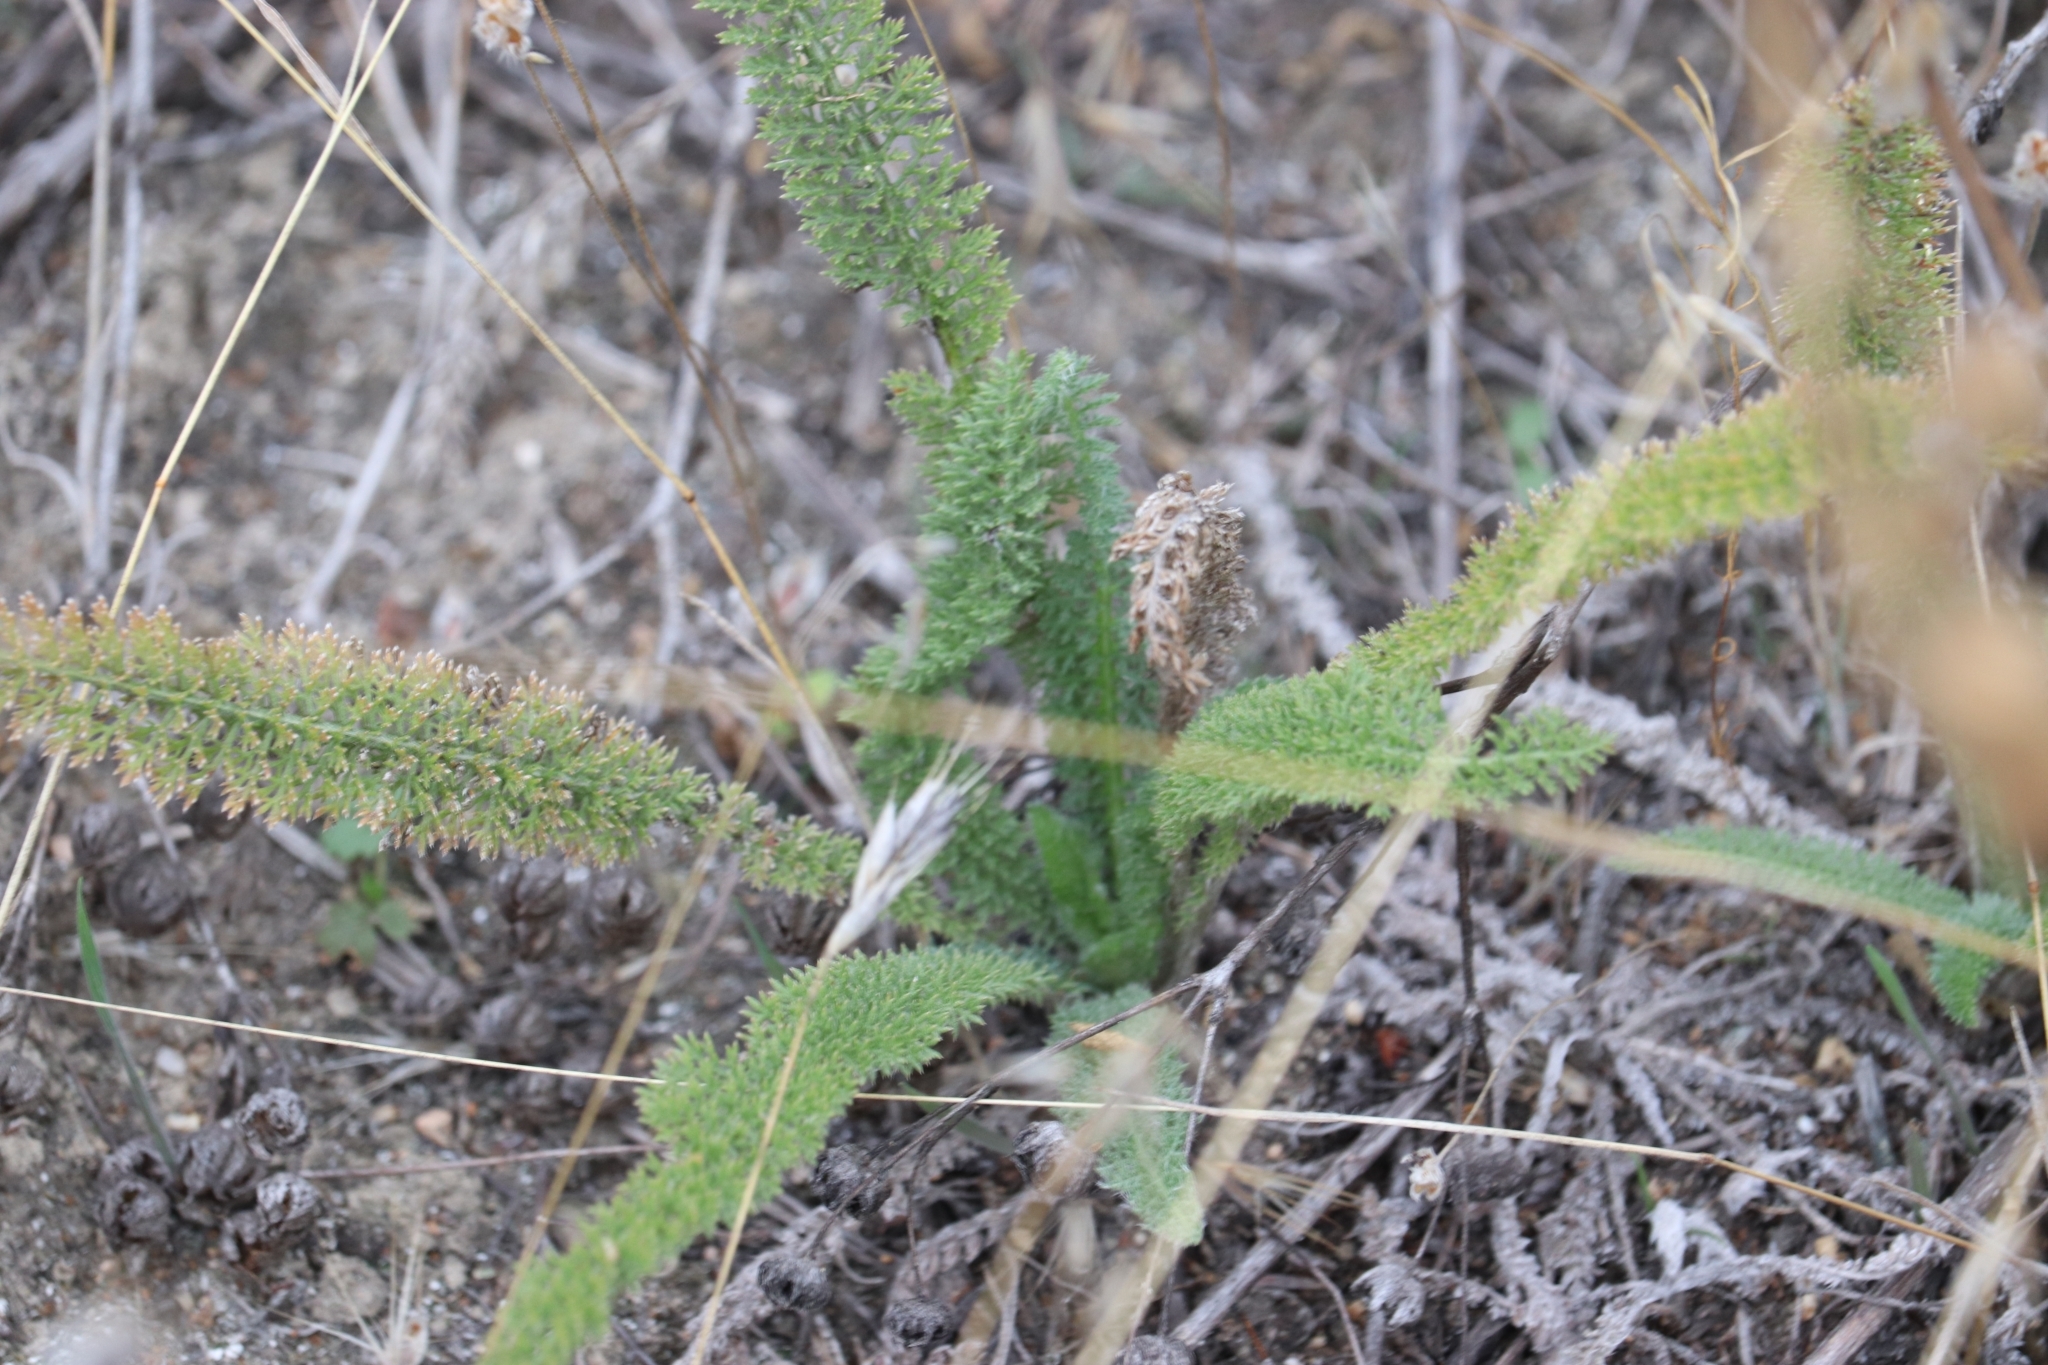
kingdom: Plantae
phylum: Tracheophyta
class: Magnoliopsida
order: Asterales
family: Asteraceae
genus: Achillea
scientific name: Achillea millefolium
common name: Yarrow
